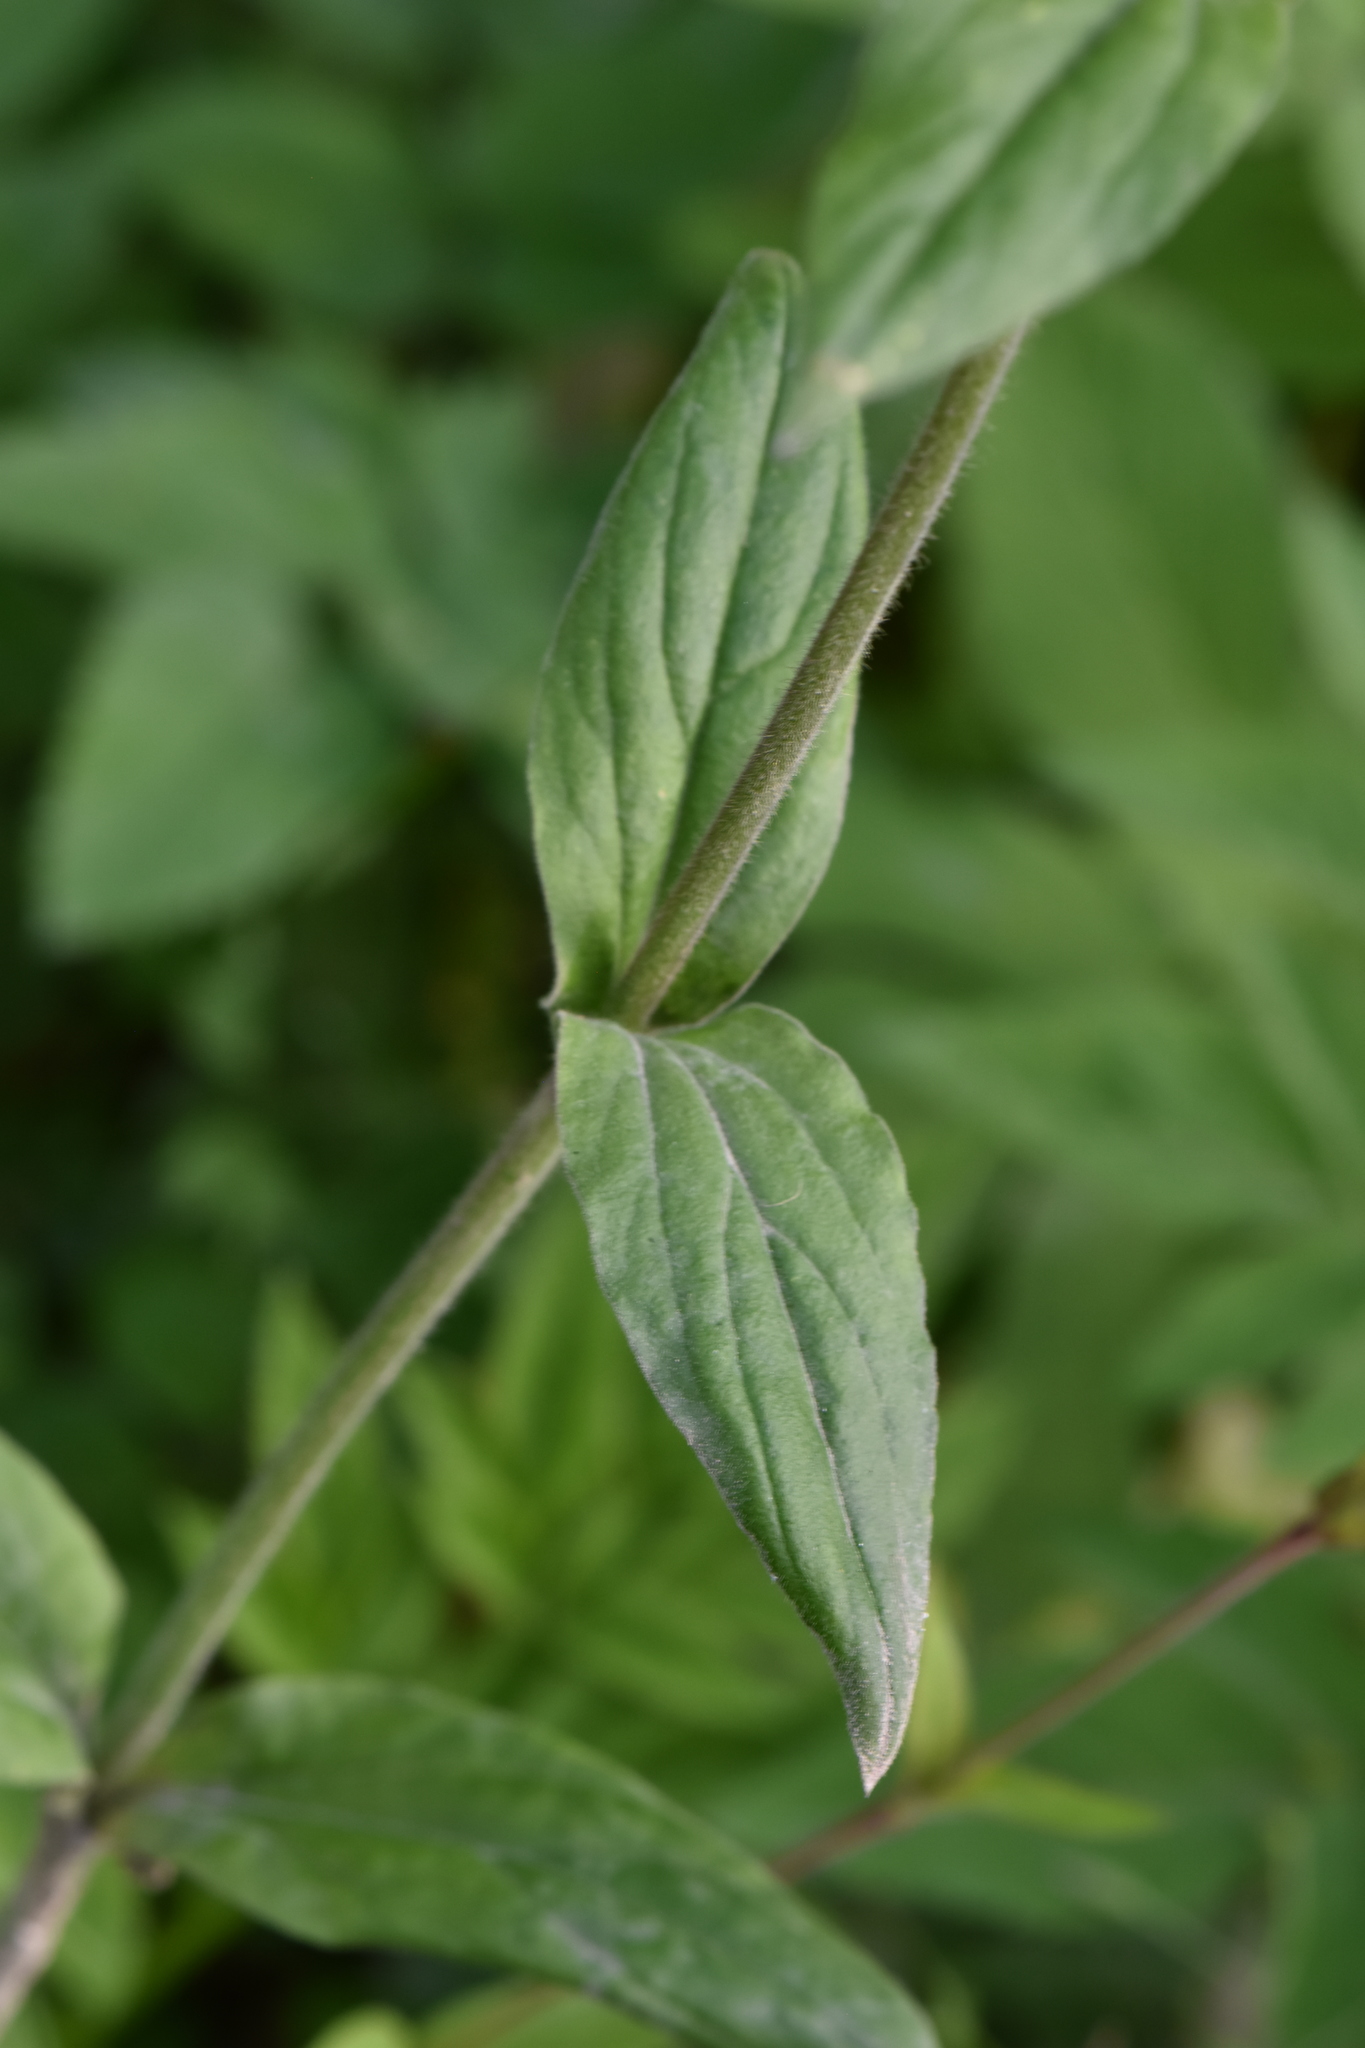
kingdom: Plantae
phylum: Tracheophyta
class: Magnoliopsida
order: Caryophyllales
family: Caryophyllaceae
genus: Silene
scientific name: Silene dioica
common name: Red campion
